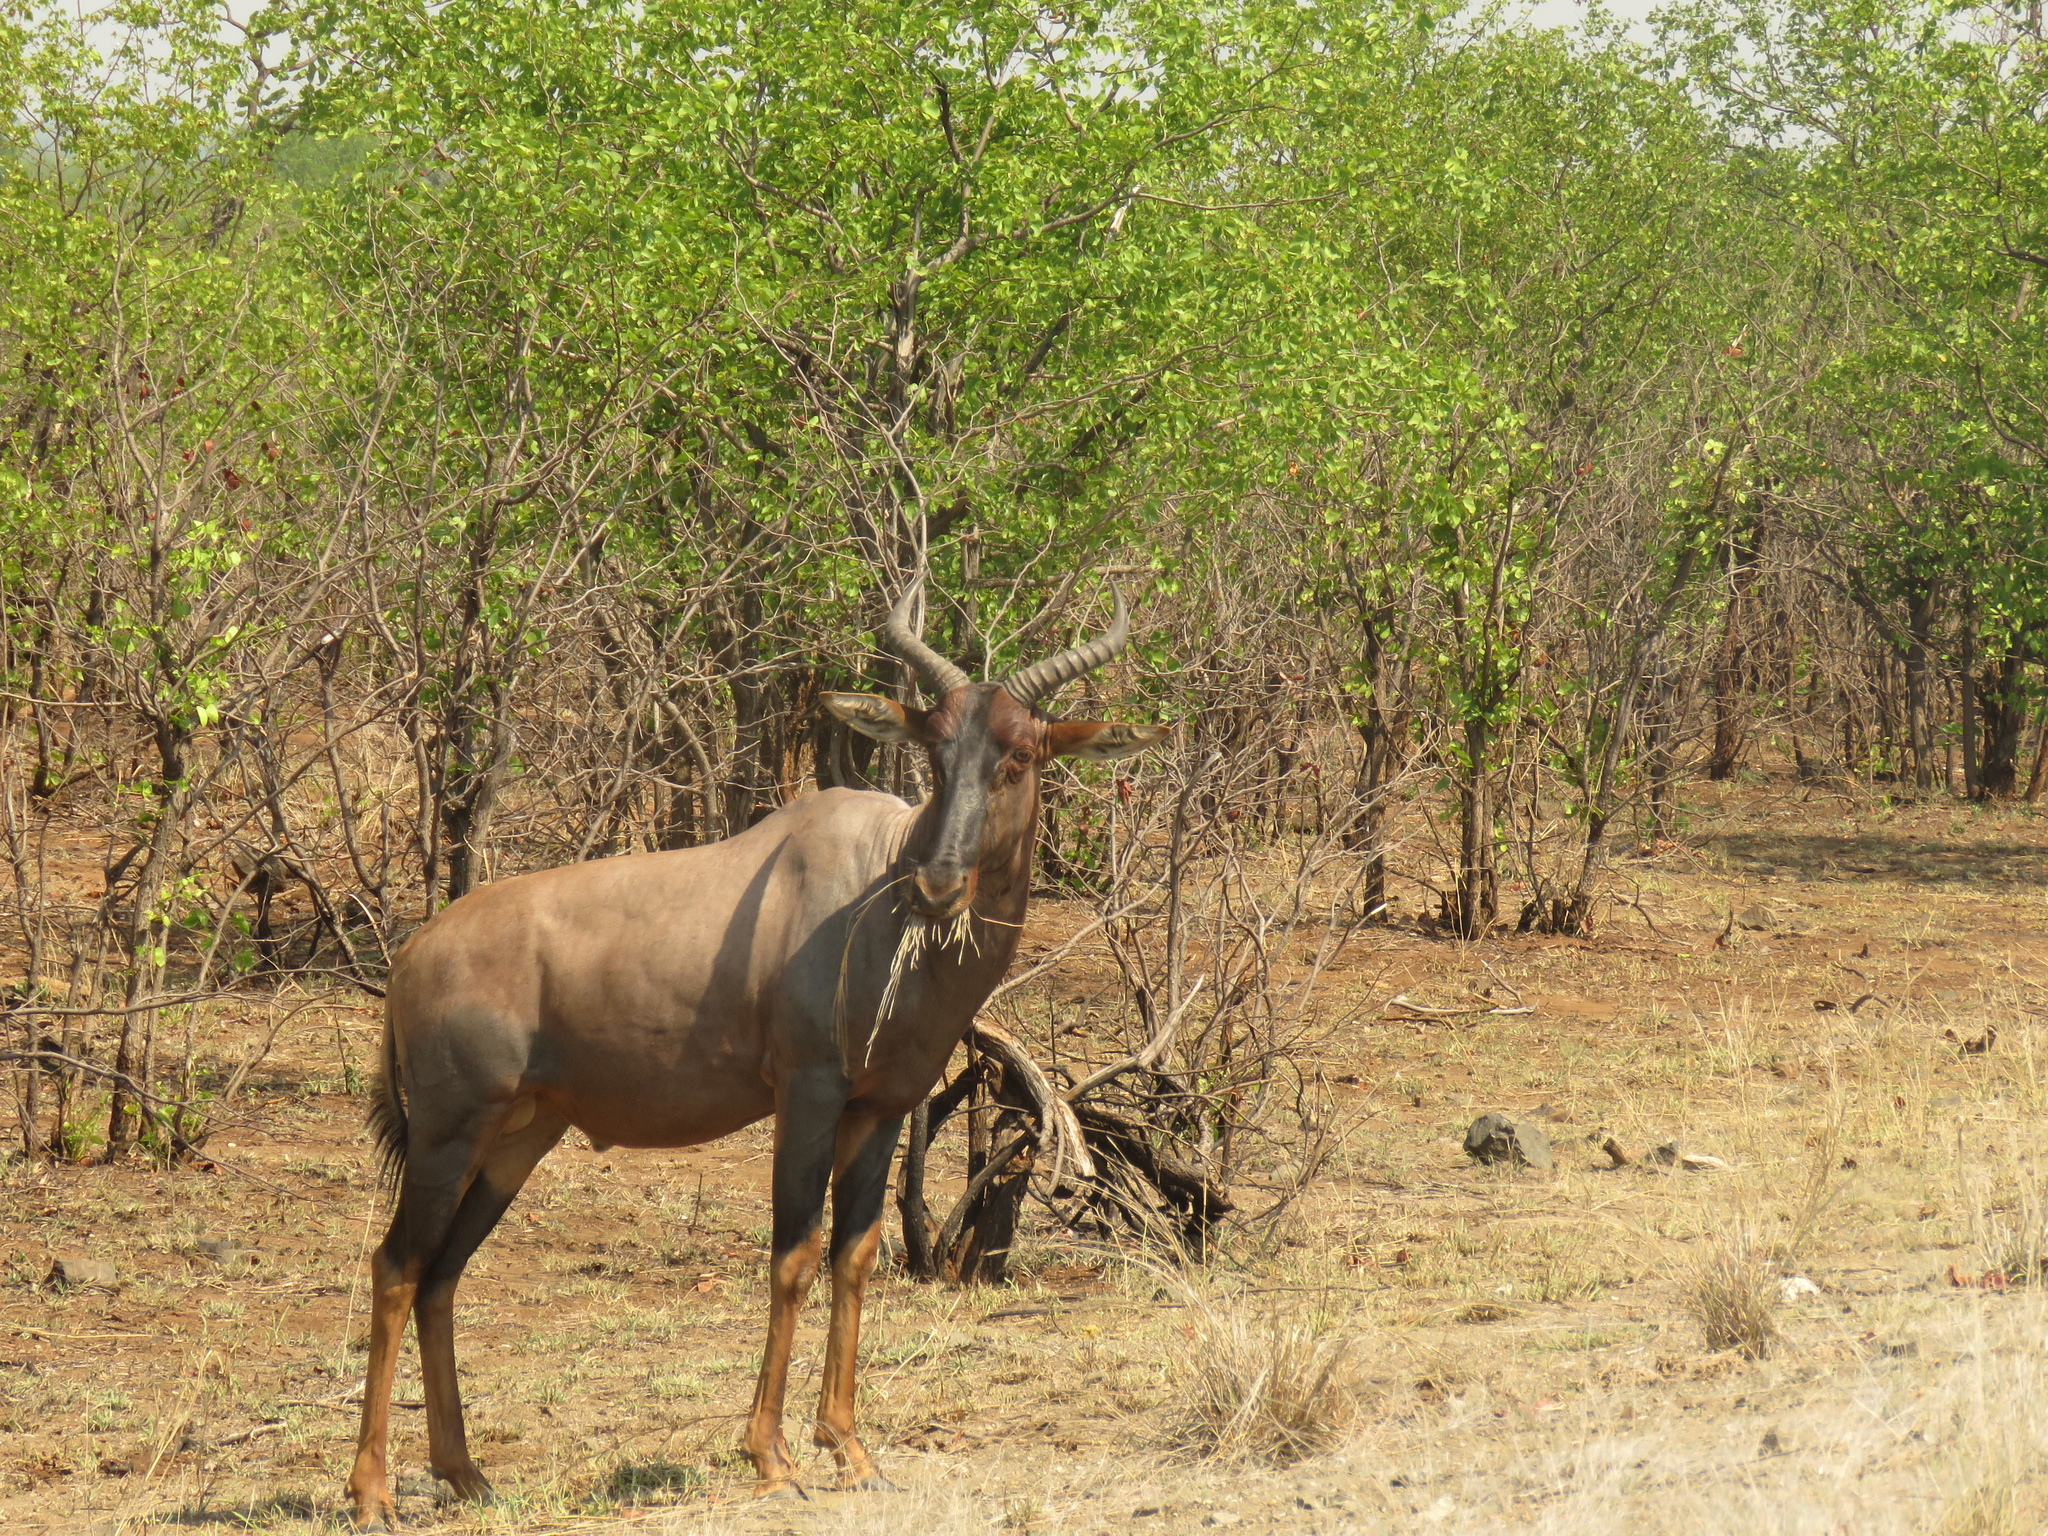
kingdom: Animalia
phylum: Chordata
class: Mammalia
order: Artiodactyla
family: Bovidae
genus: Damaliscus
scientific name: Damaliscus lunatus
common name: Common tsessebe
